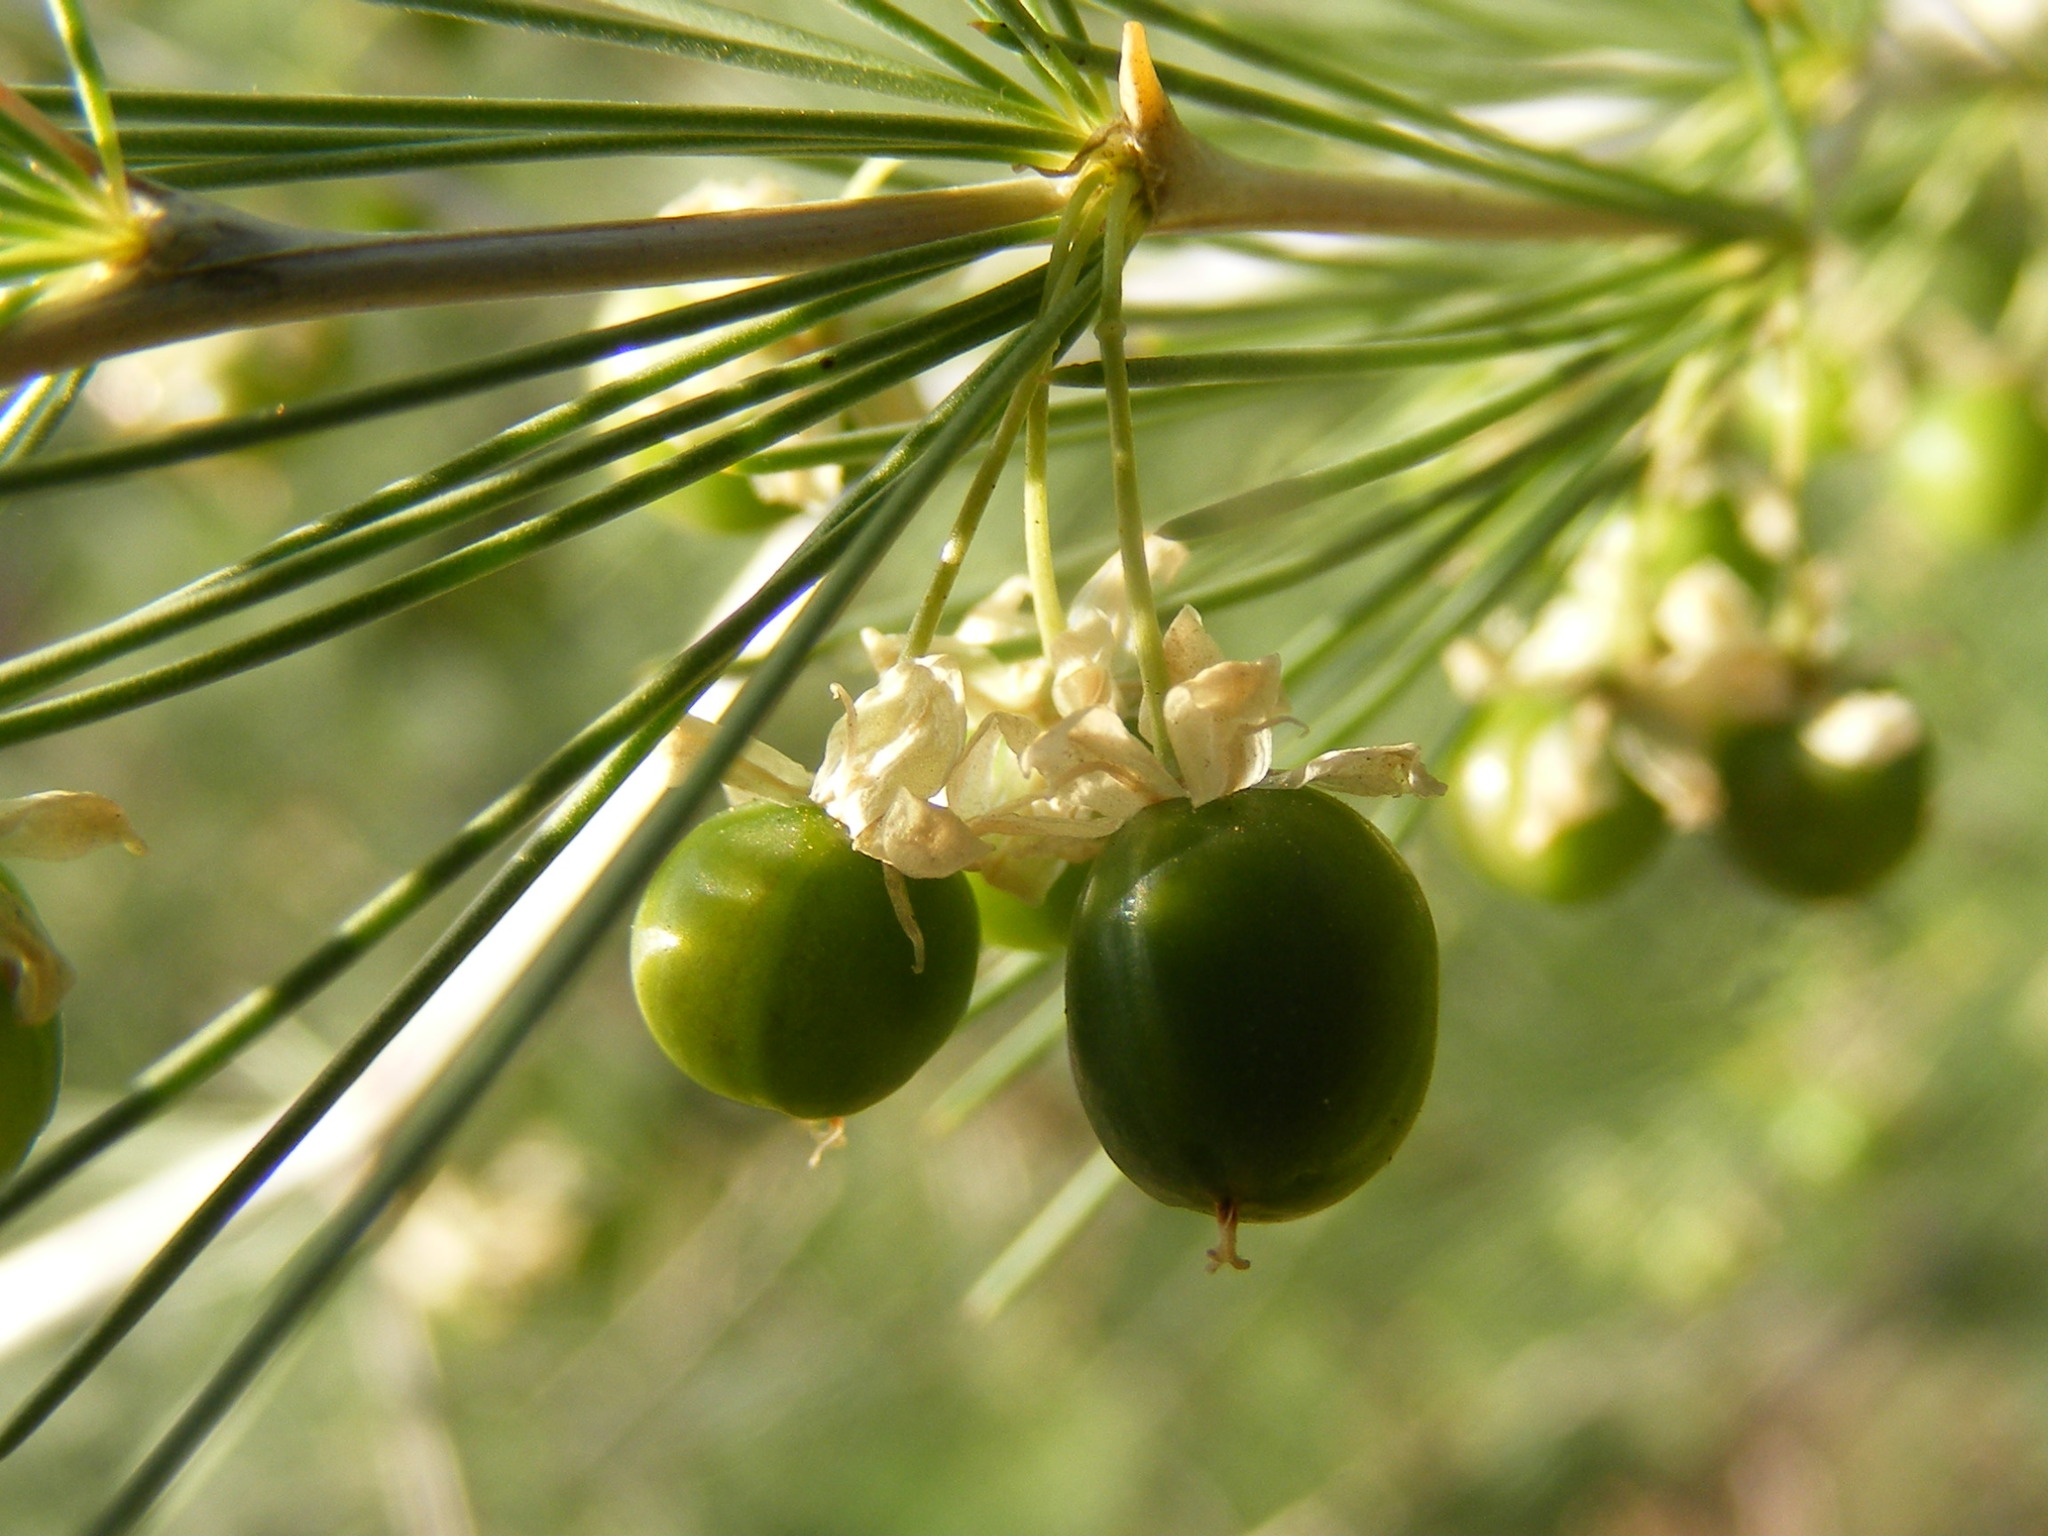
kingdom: Plantae
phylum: Tracheophyta
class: Liliopsida
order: Asparagales
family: Asparagaceae
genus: Asparagus
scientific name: Asparagus laricinus
